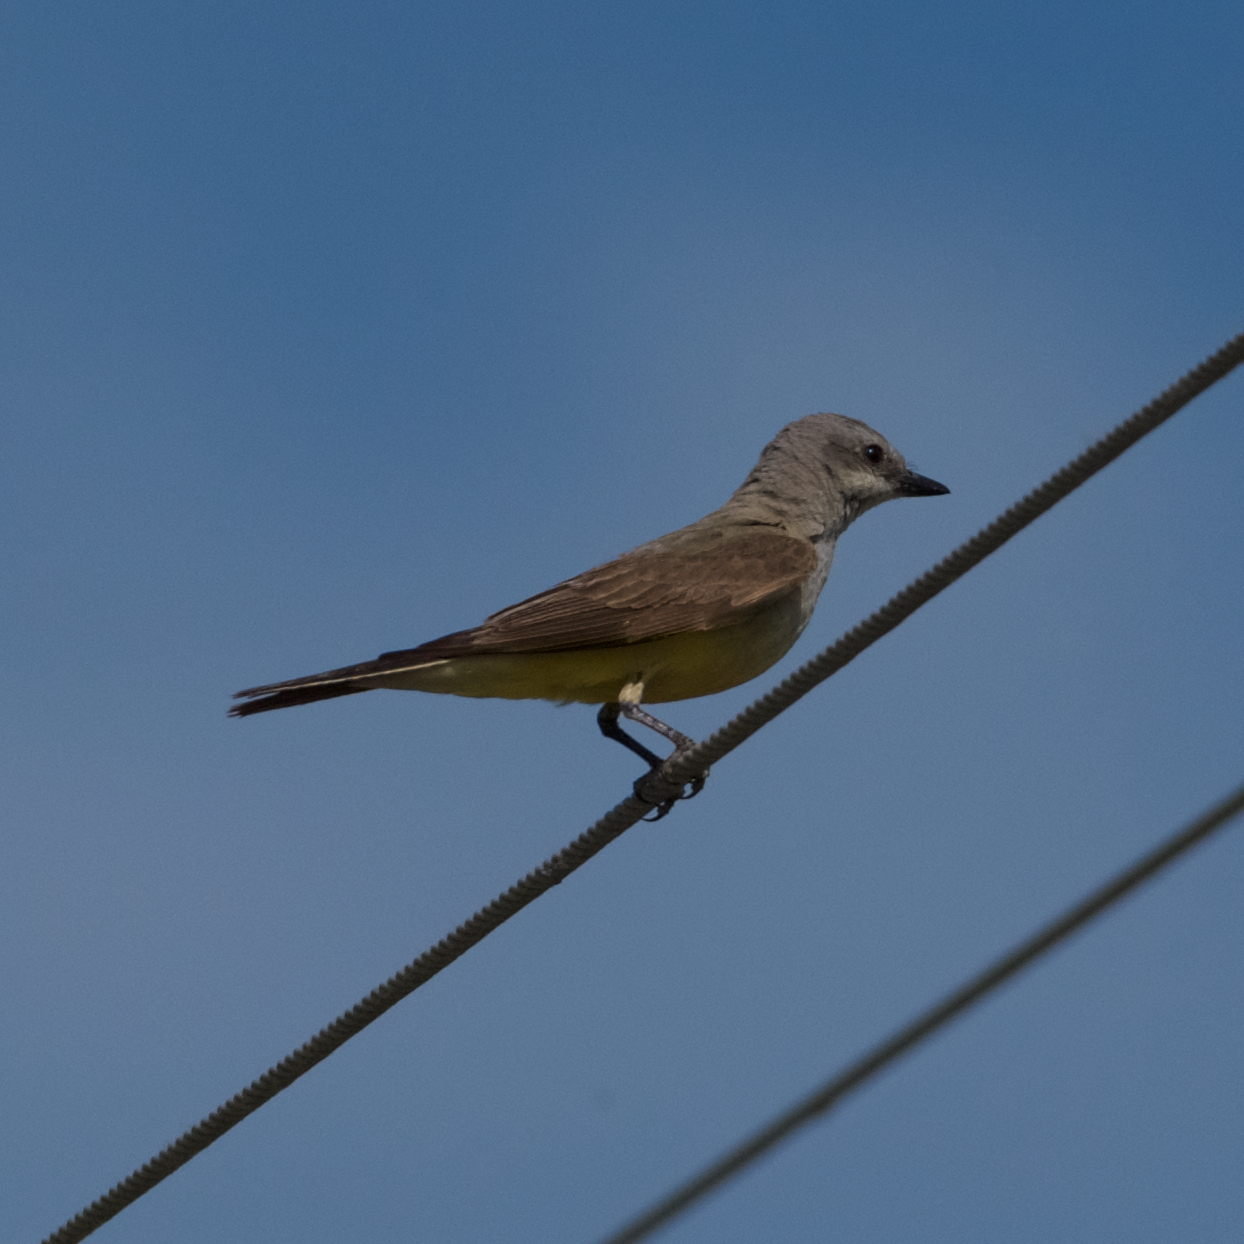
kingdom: Animalia
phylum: Chordata
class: Aves
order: Passeriformes
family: Tyrannidae
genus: Tyrannus
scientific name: Tyrannus verticalis
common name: Western kingbird
